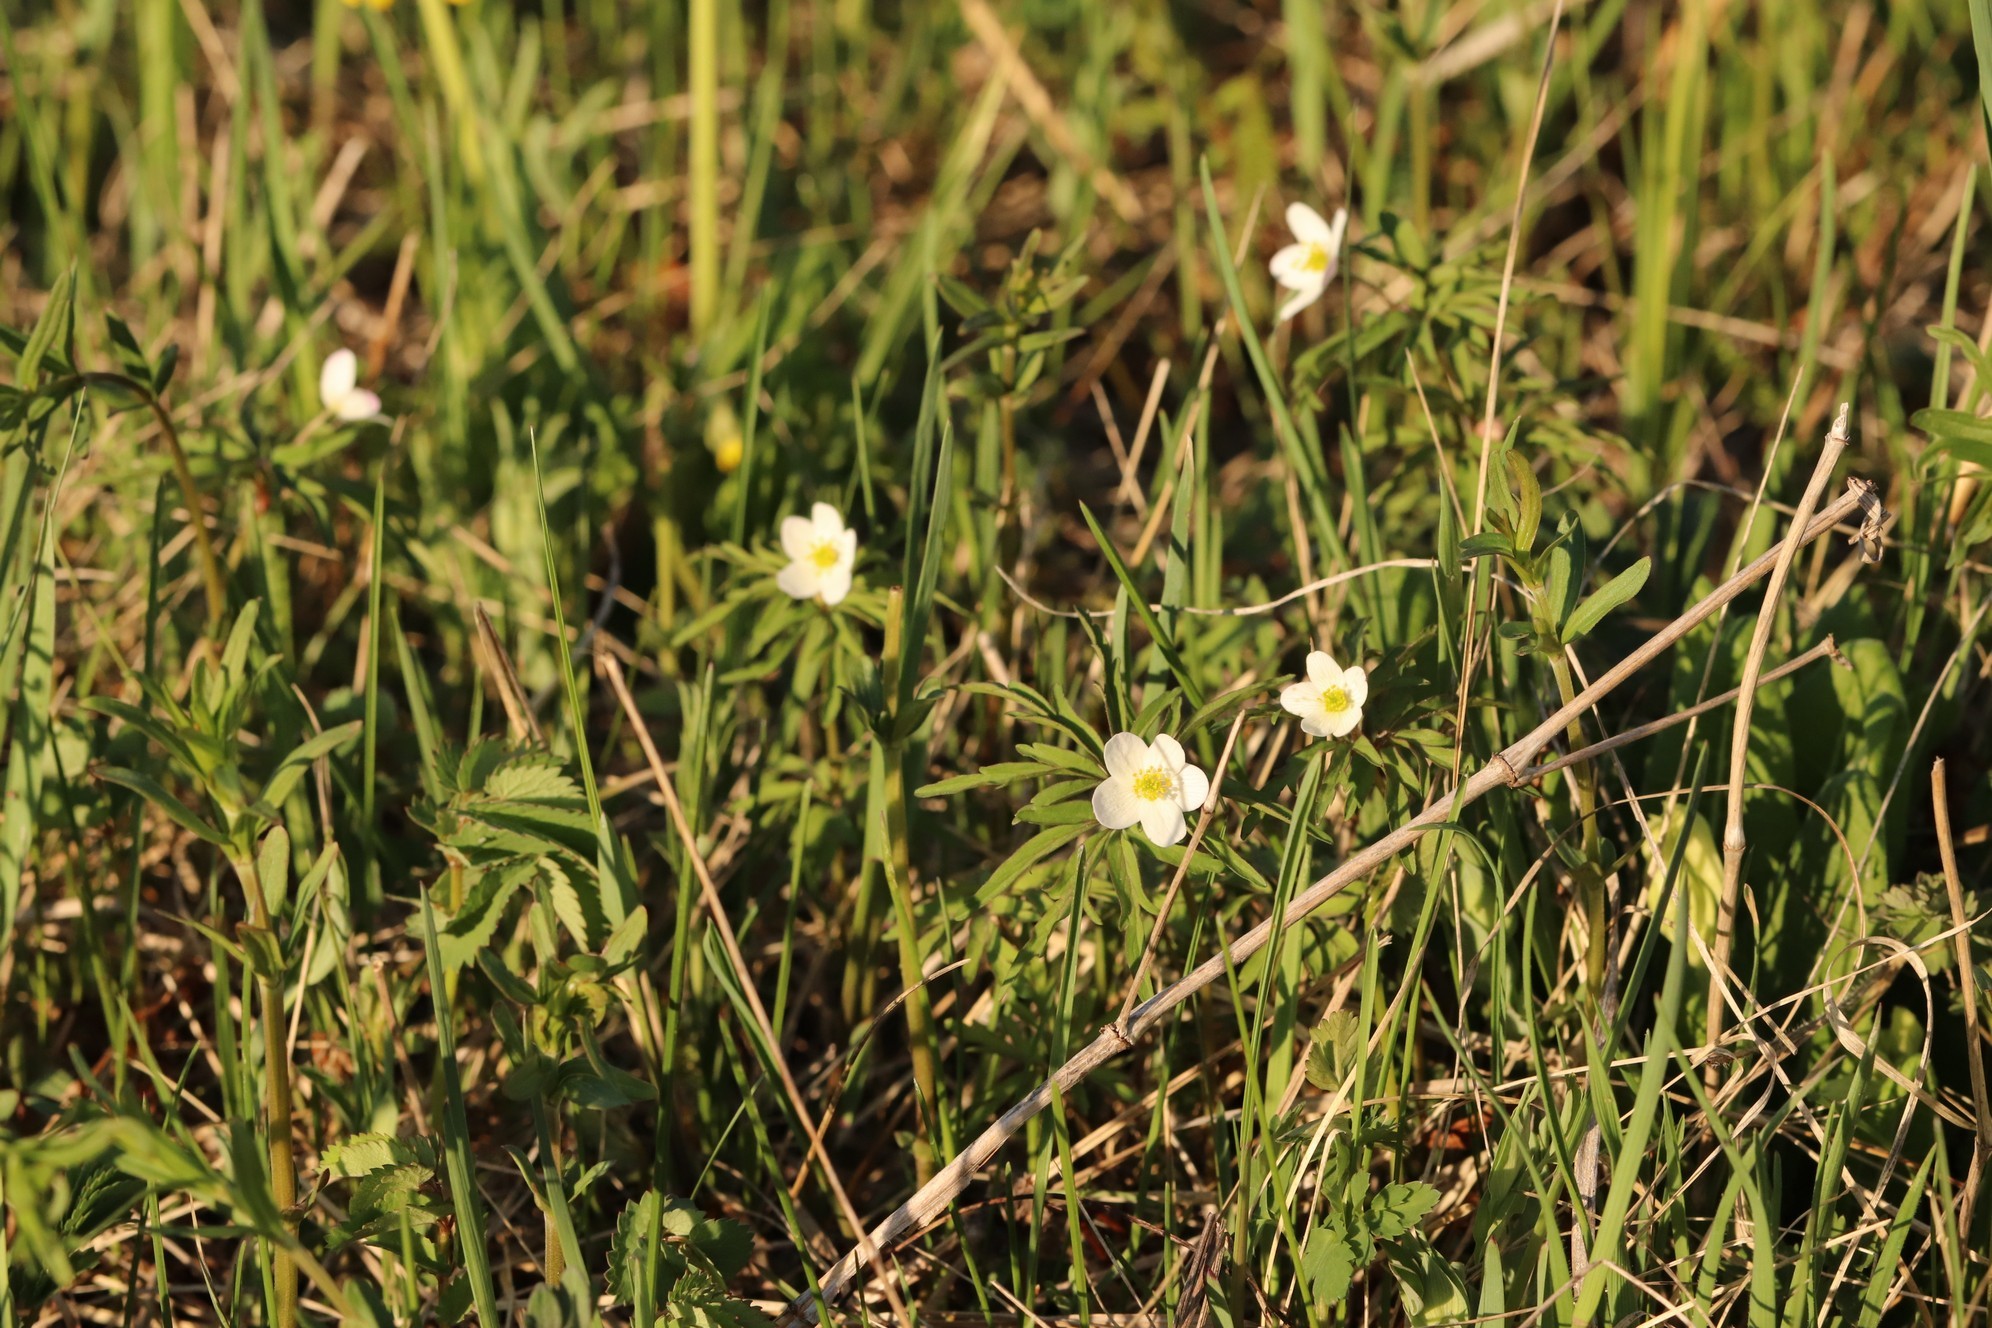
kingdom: Plantae
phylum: Tracheophyta
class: Magnoliopsida
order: Ranunculales
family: Ranunculaceae
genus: Anemone
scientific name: Anemone caerulea
